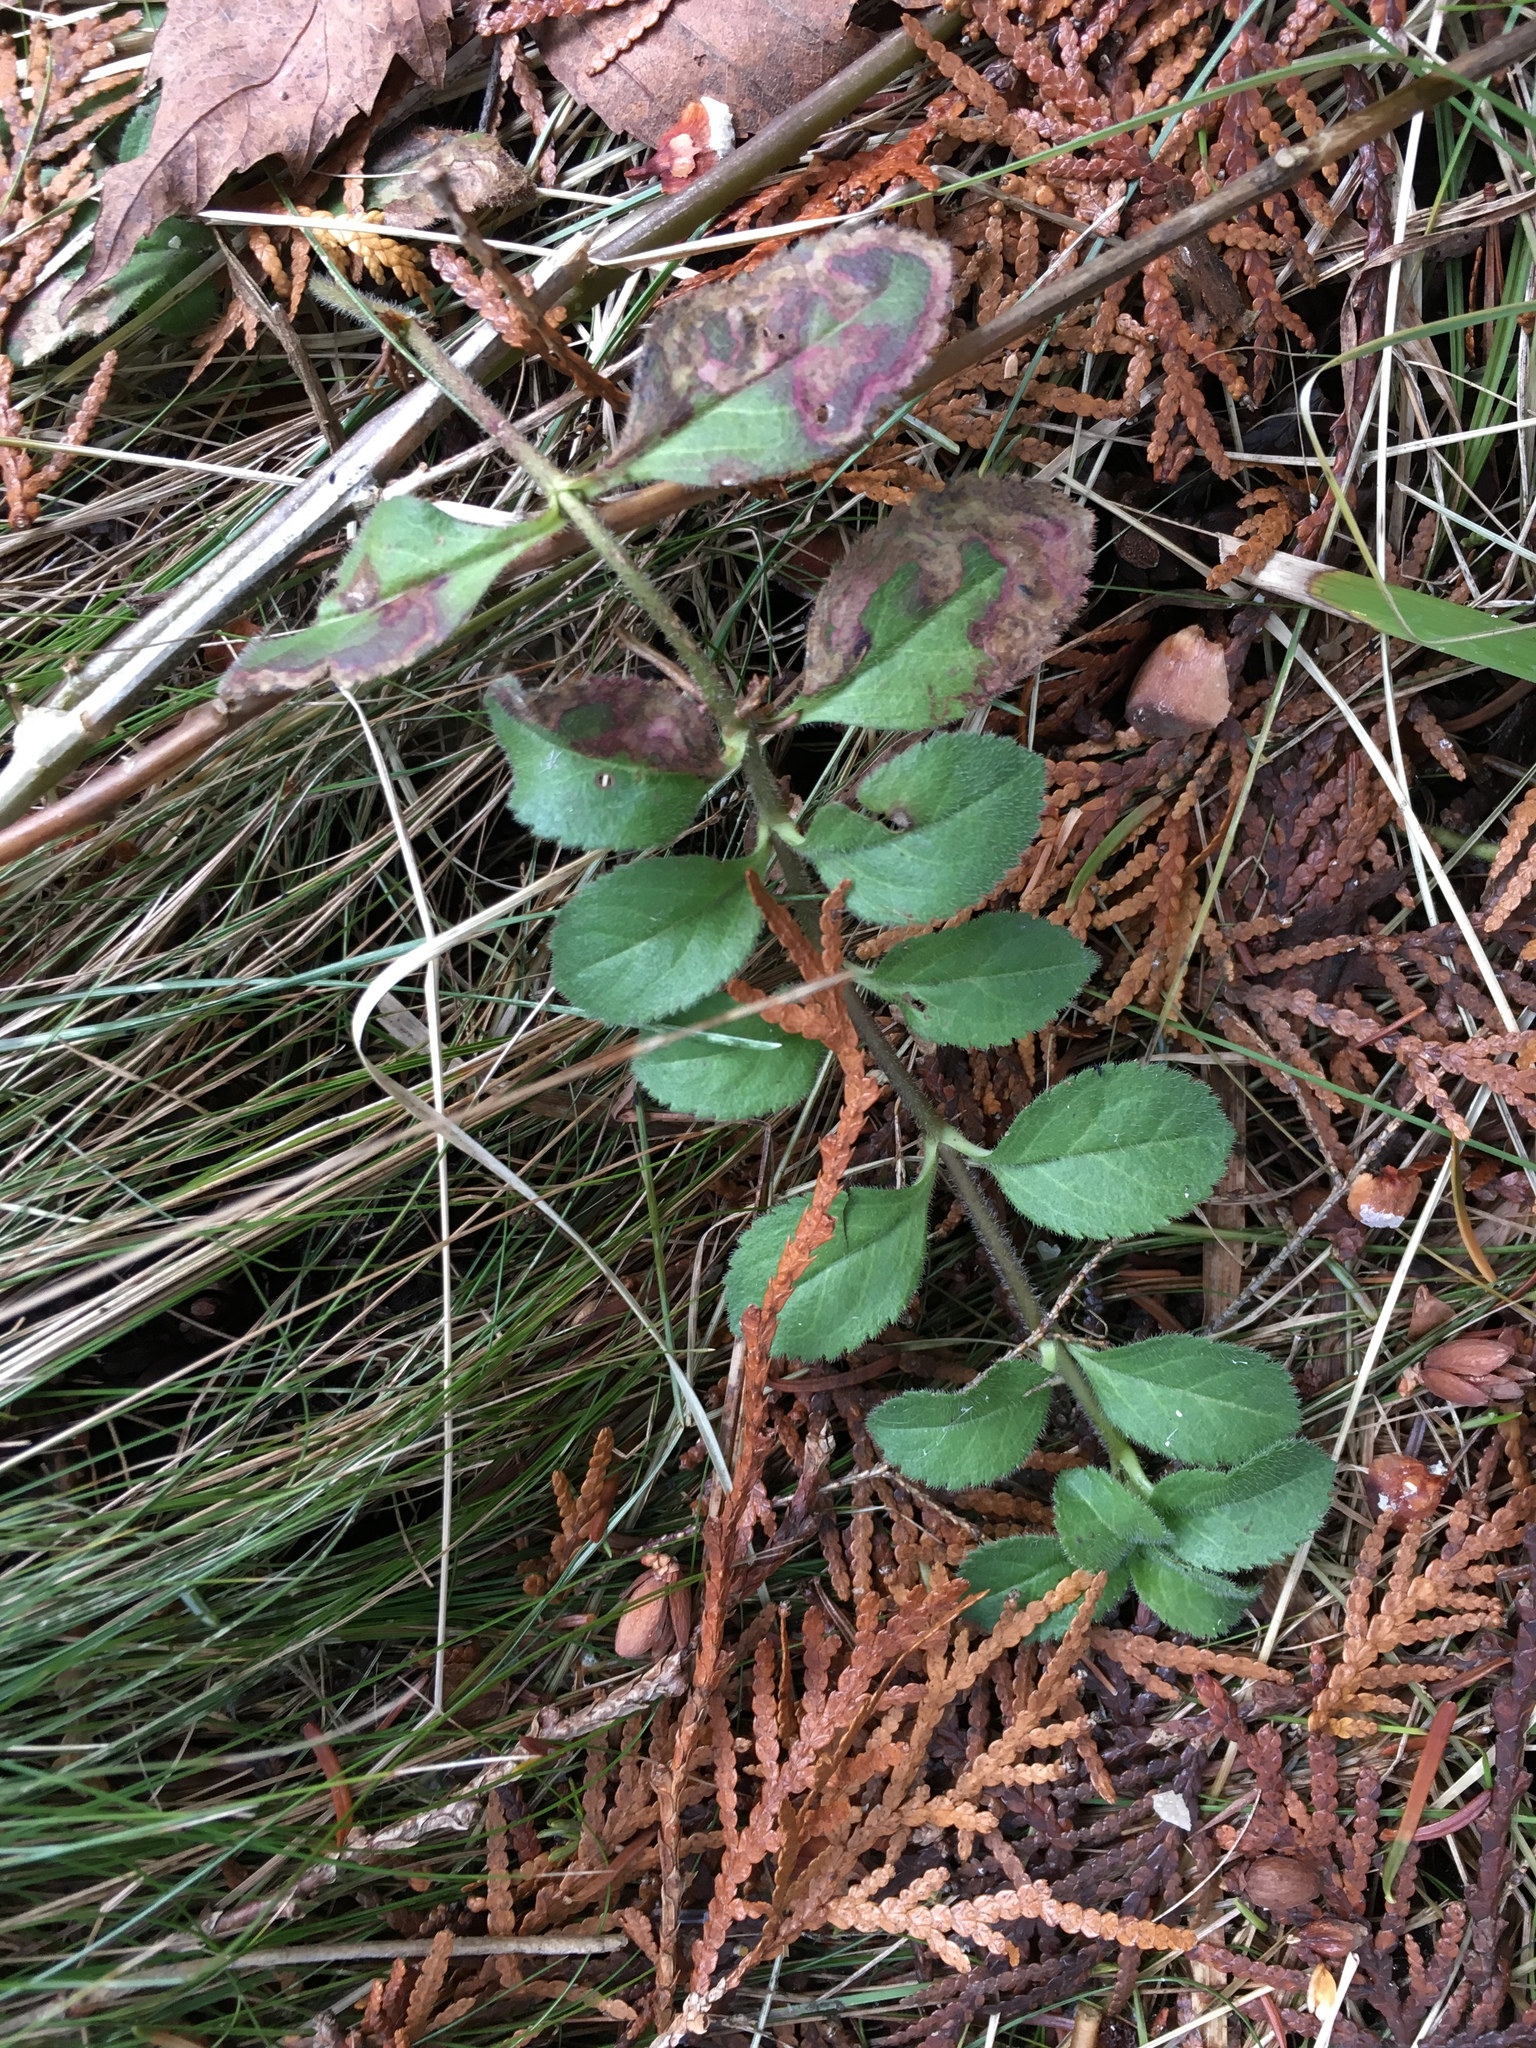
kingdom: Plantae
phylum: Tracheophyta
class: Magnoliopsida
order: Lamiales
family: Plantaginaceae
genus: Veronica
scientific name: Veronica officinalis
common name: Common speedwell
